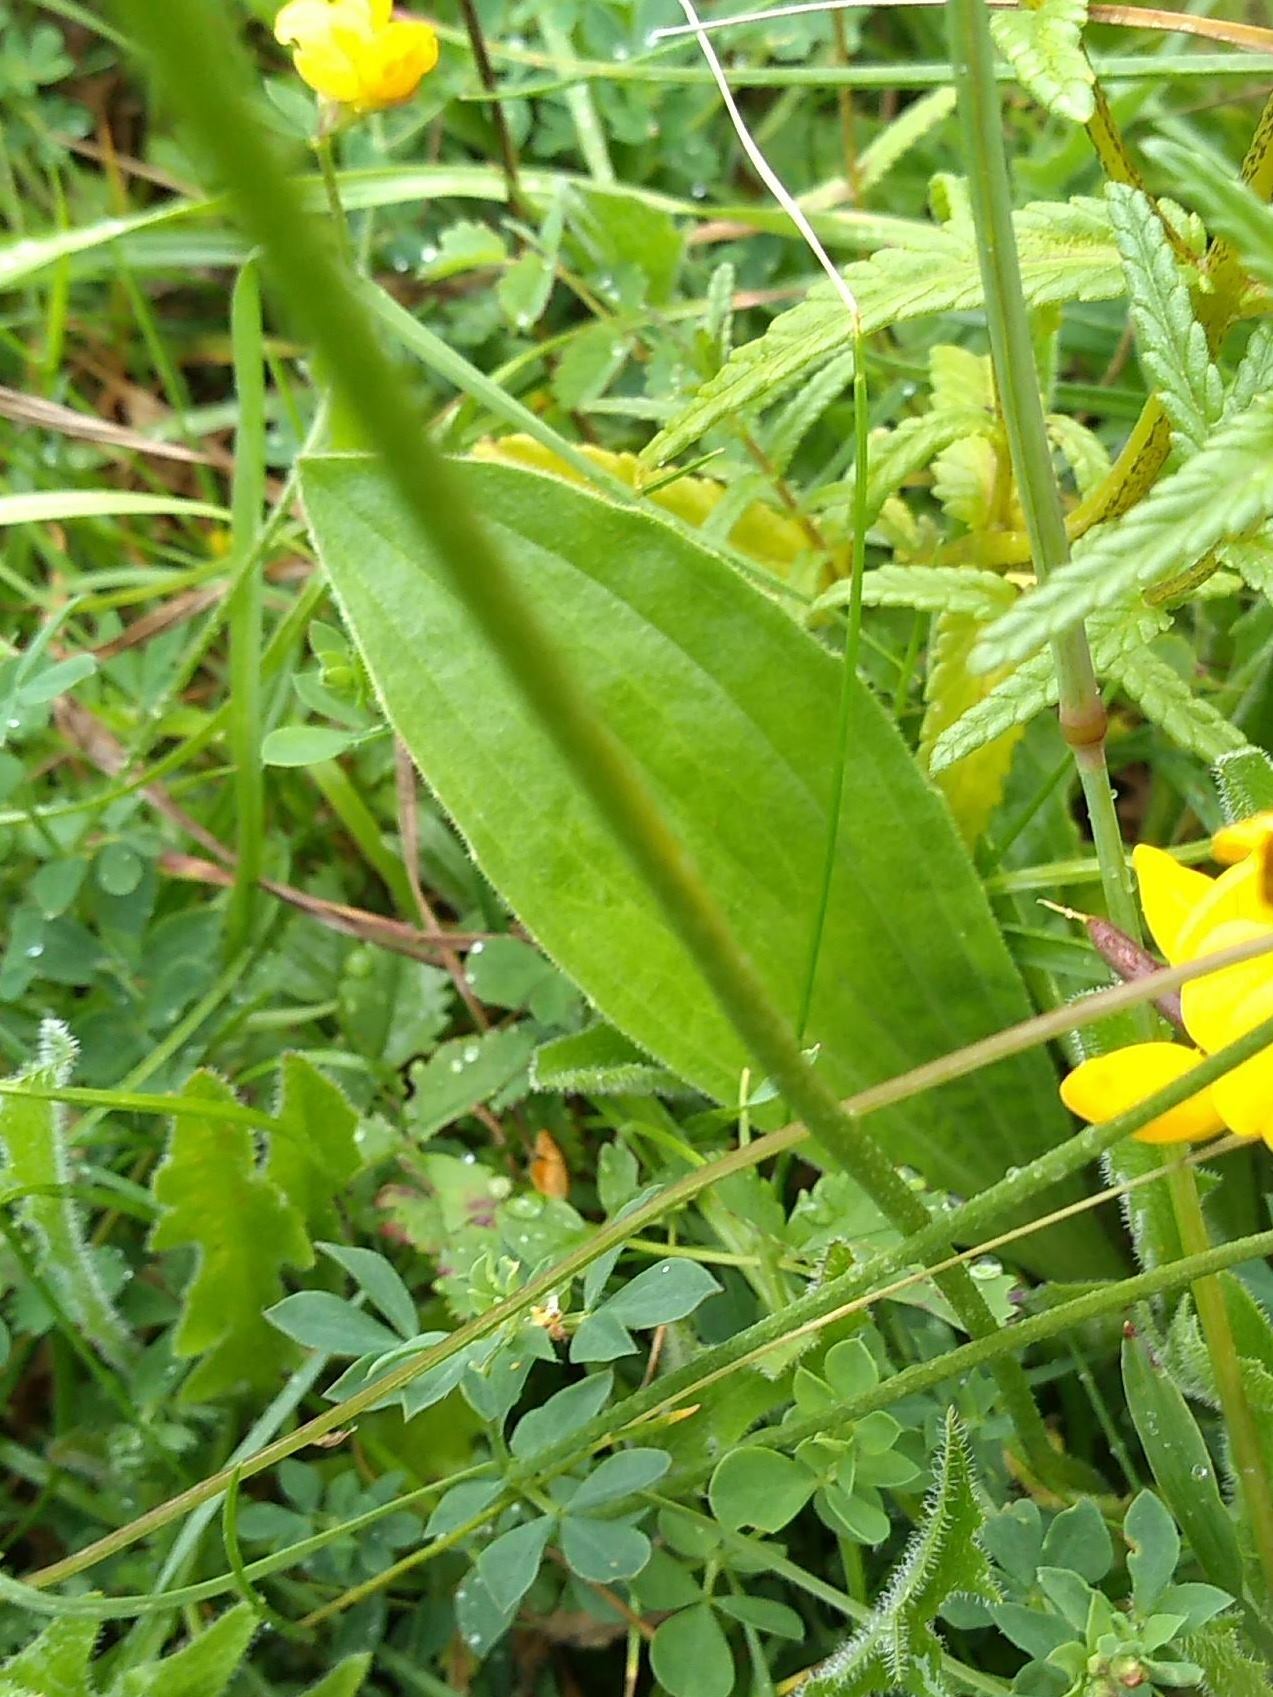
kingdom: Plantae
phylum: Tracheophyta
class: Magnoliopsida
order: Lamiales
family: Plantaginaceae
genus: Plantago
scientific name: Plantago media
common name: Hoary plantain
